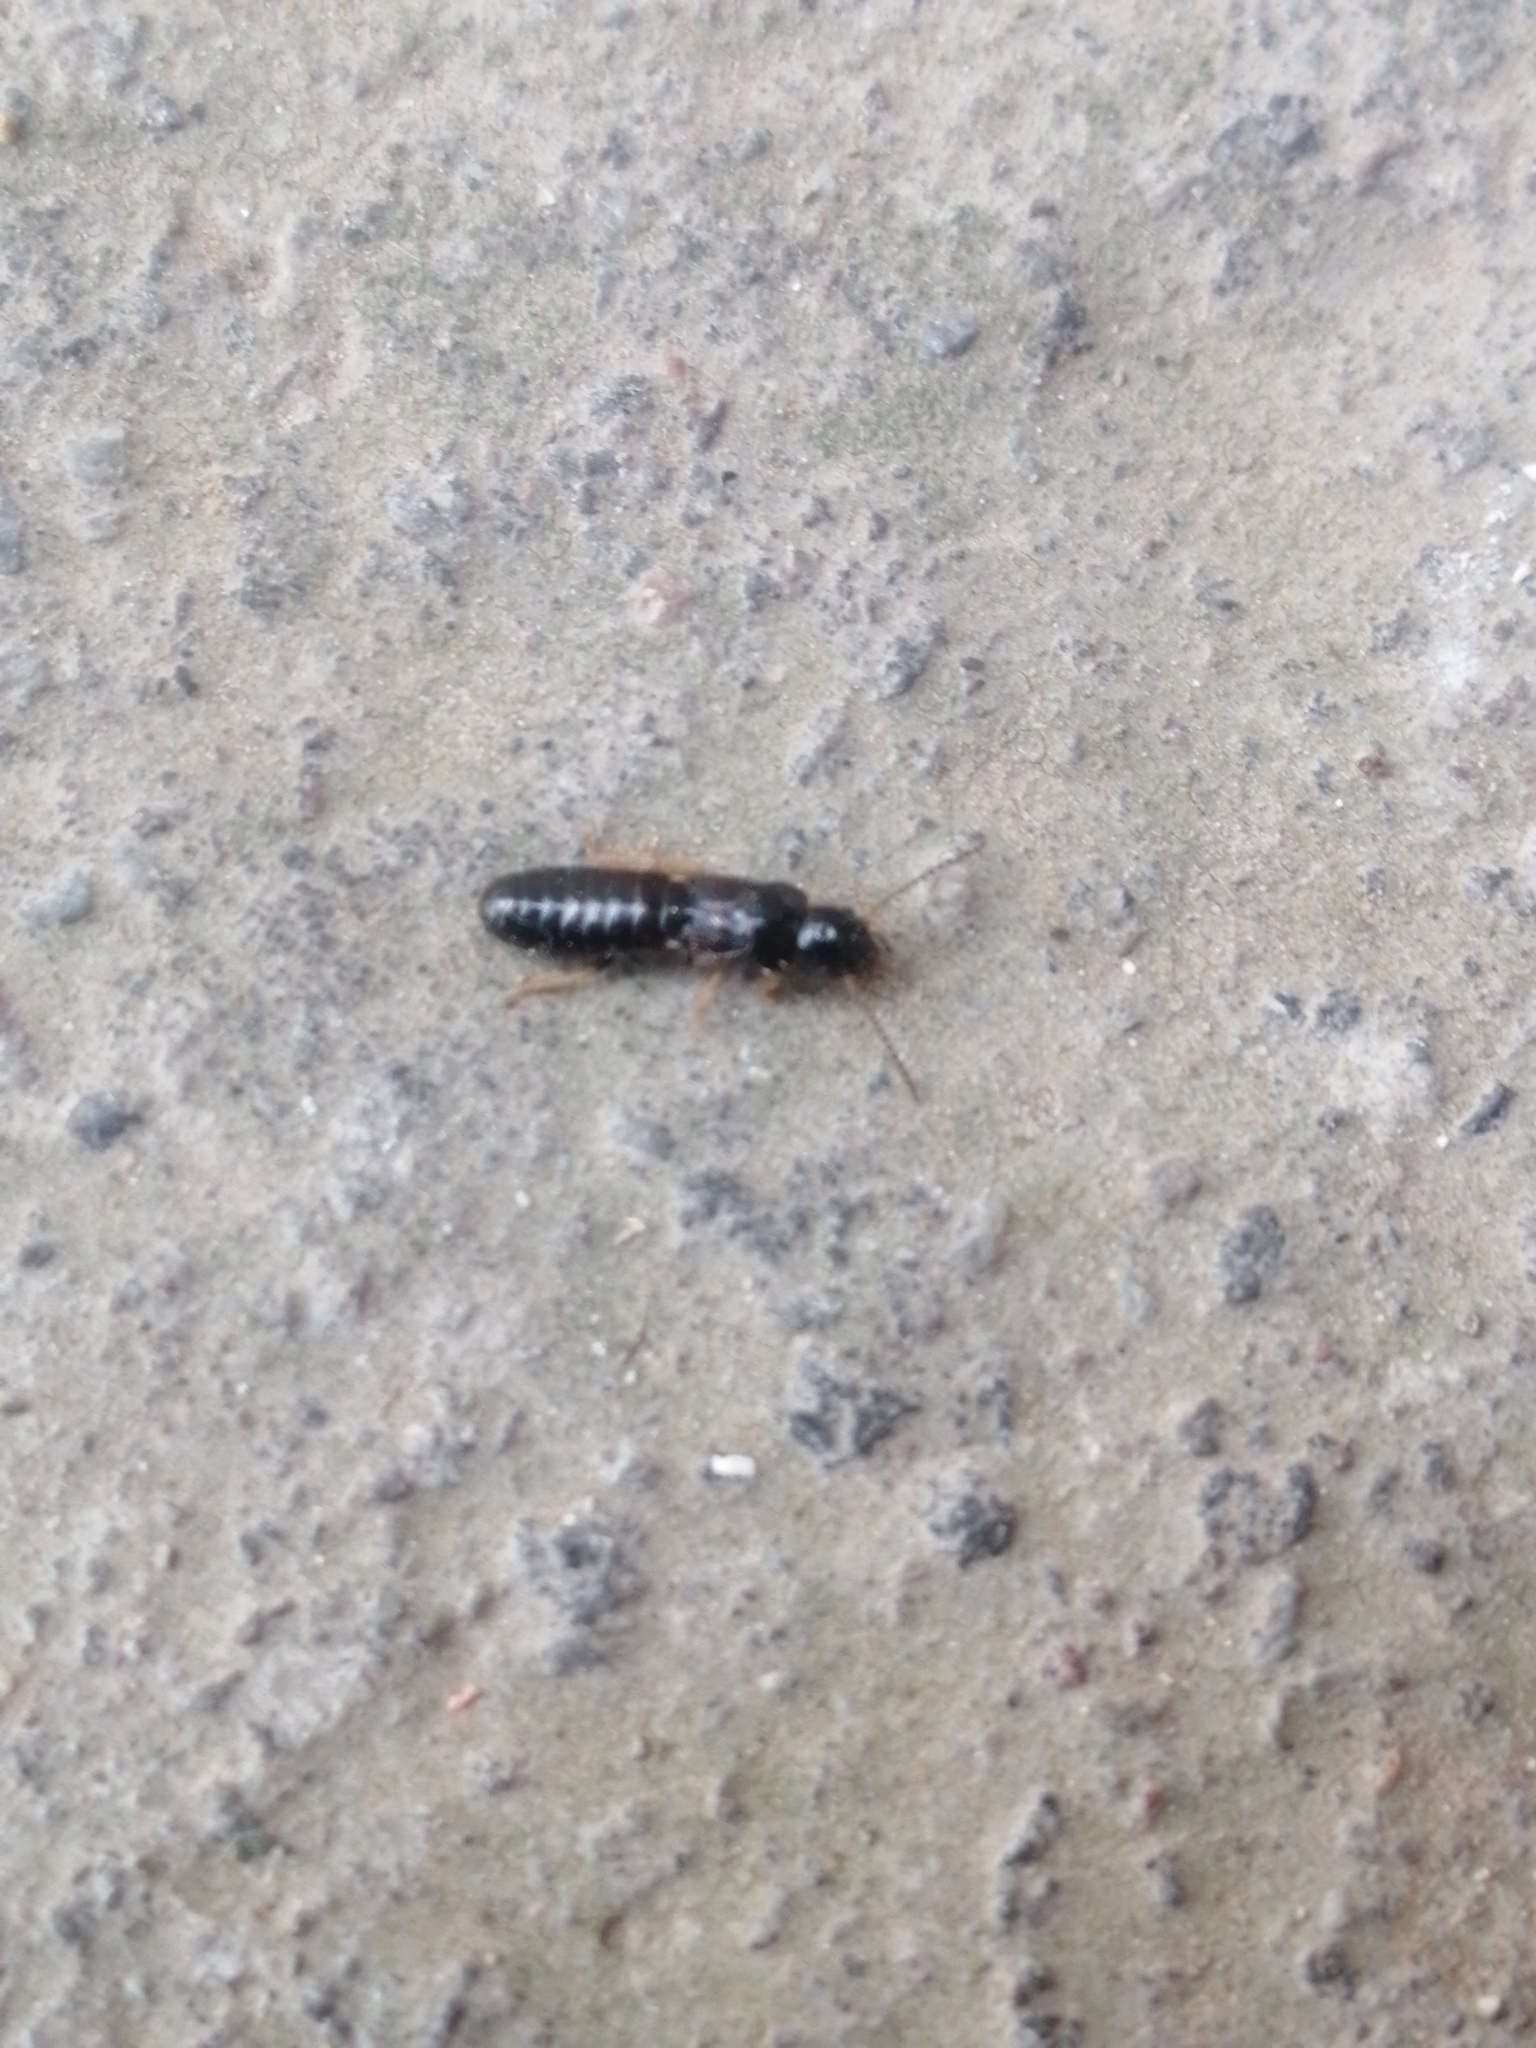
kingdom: Animalia
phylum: Arthropoda
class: Insecta
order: Blattodea
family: Kalotermitidae
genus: Rugitermes
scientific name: Rugitermes laticollis
